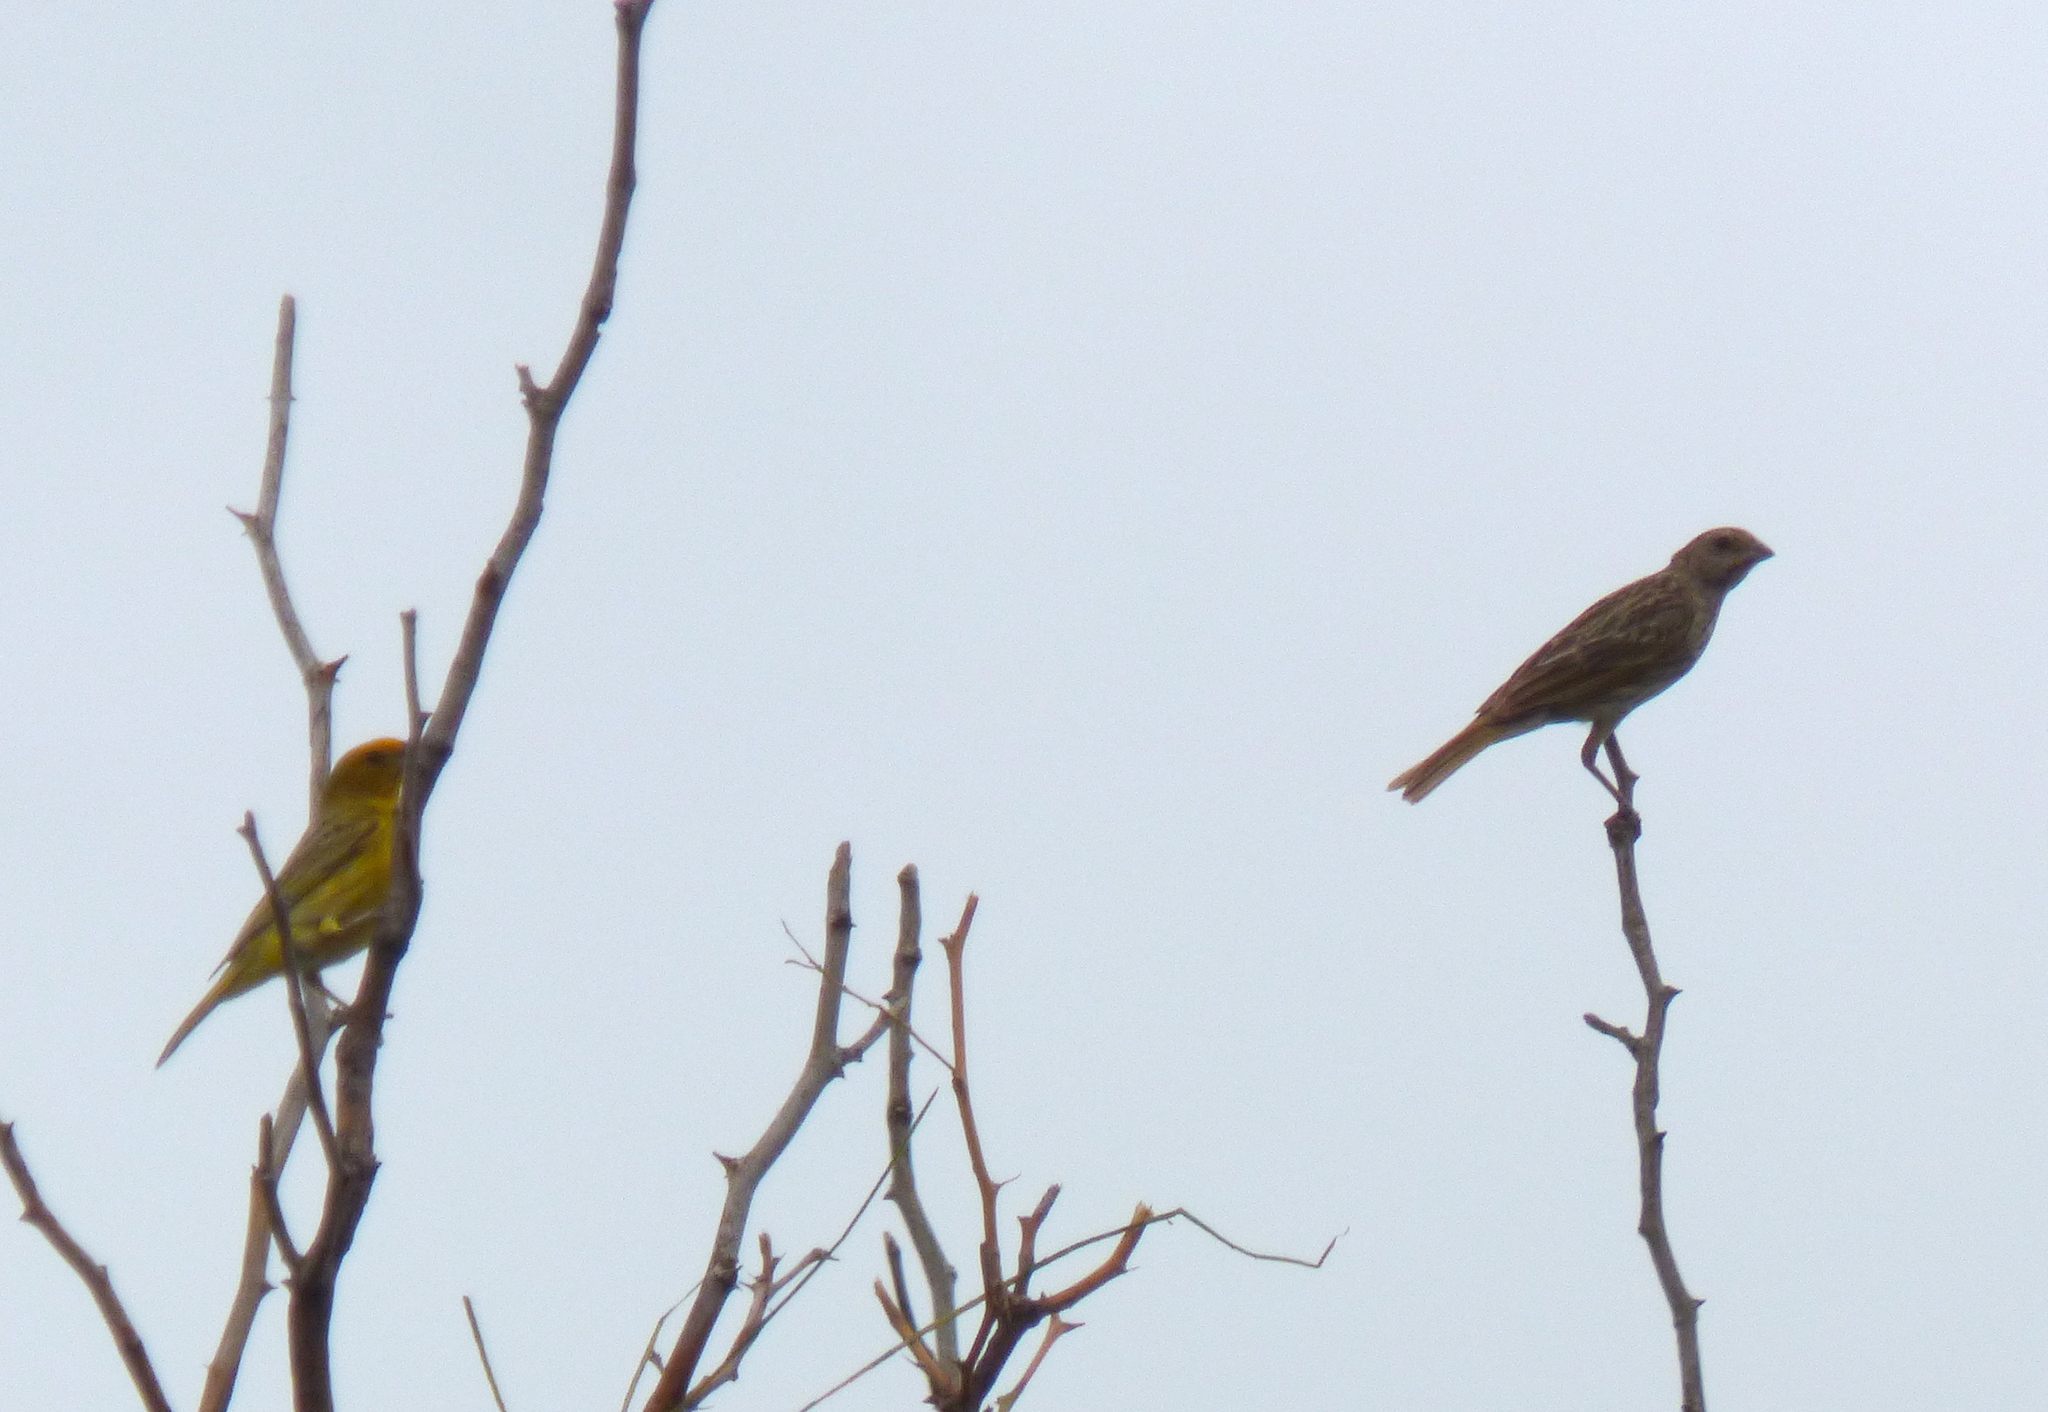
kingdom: Animalia
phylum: Chordata
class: Aves
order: Passeriformes
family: Thraupidae
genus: Sicalis
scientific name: Sicalis flaveola
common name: Saffron finch
